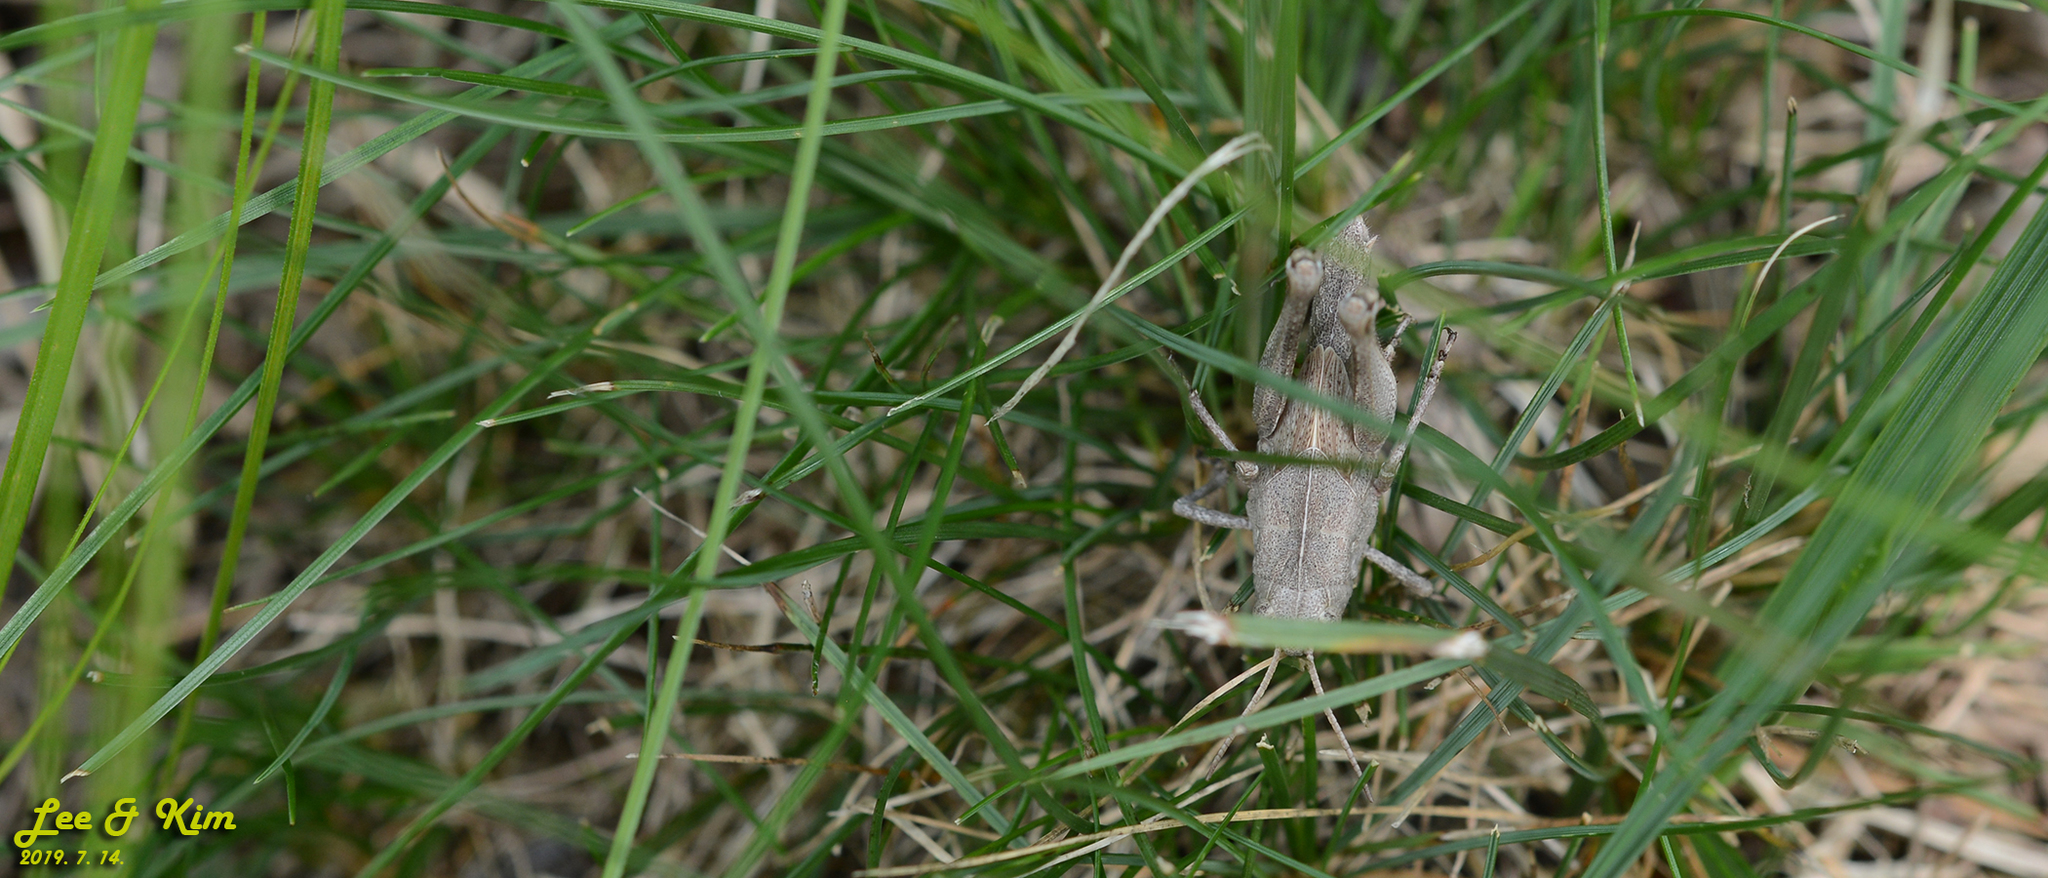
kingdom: Animalia
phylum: Arthropoda
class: Insecta
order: Orthoptera
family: Acrididae
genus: Locusta
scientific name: Locusta migratoria
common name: Migratory locust
